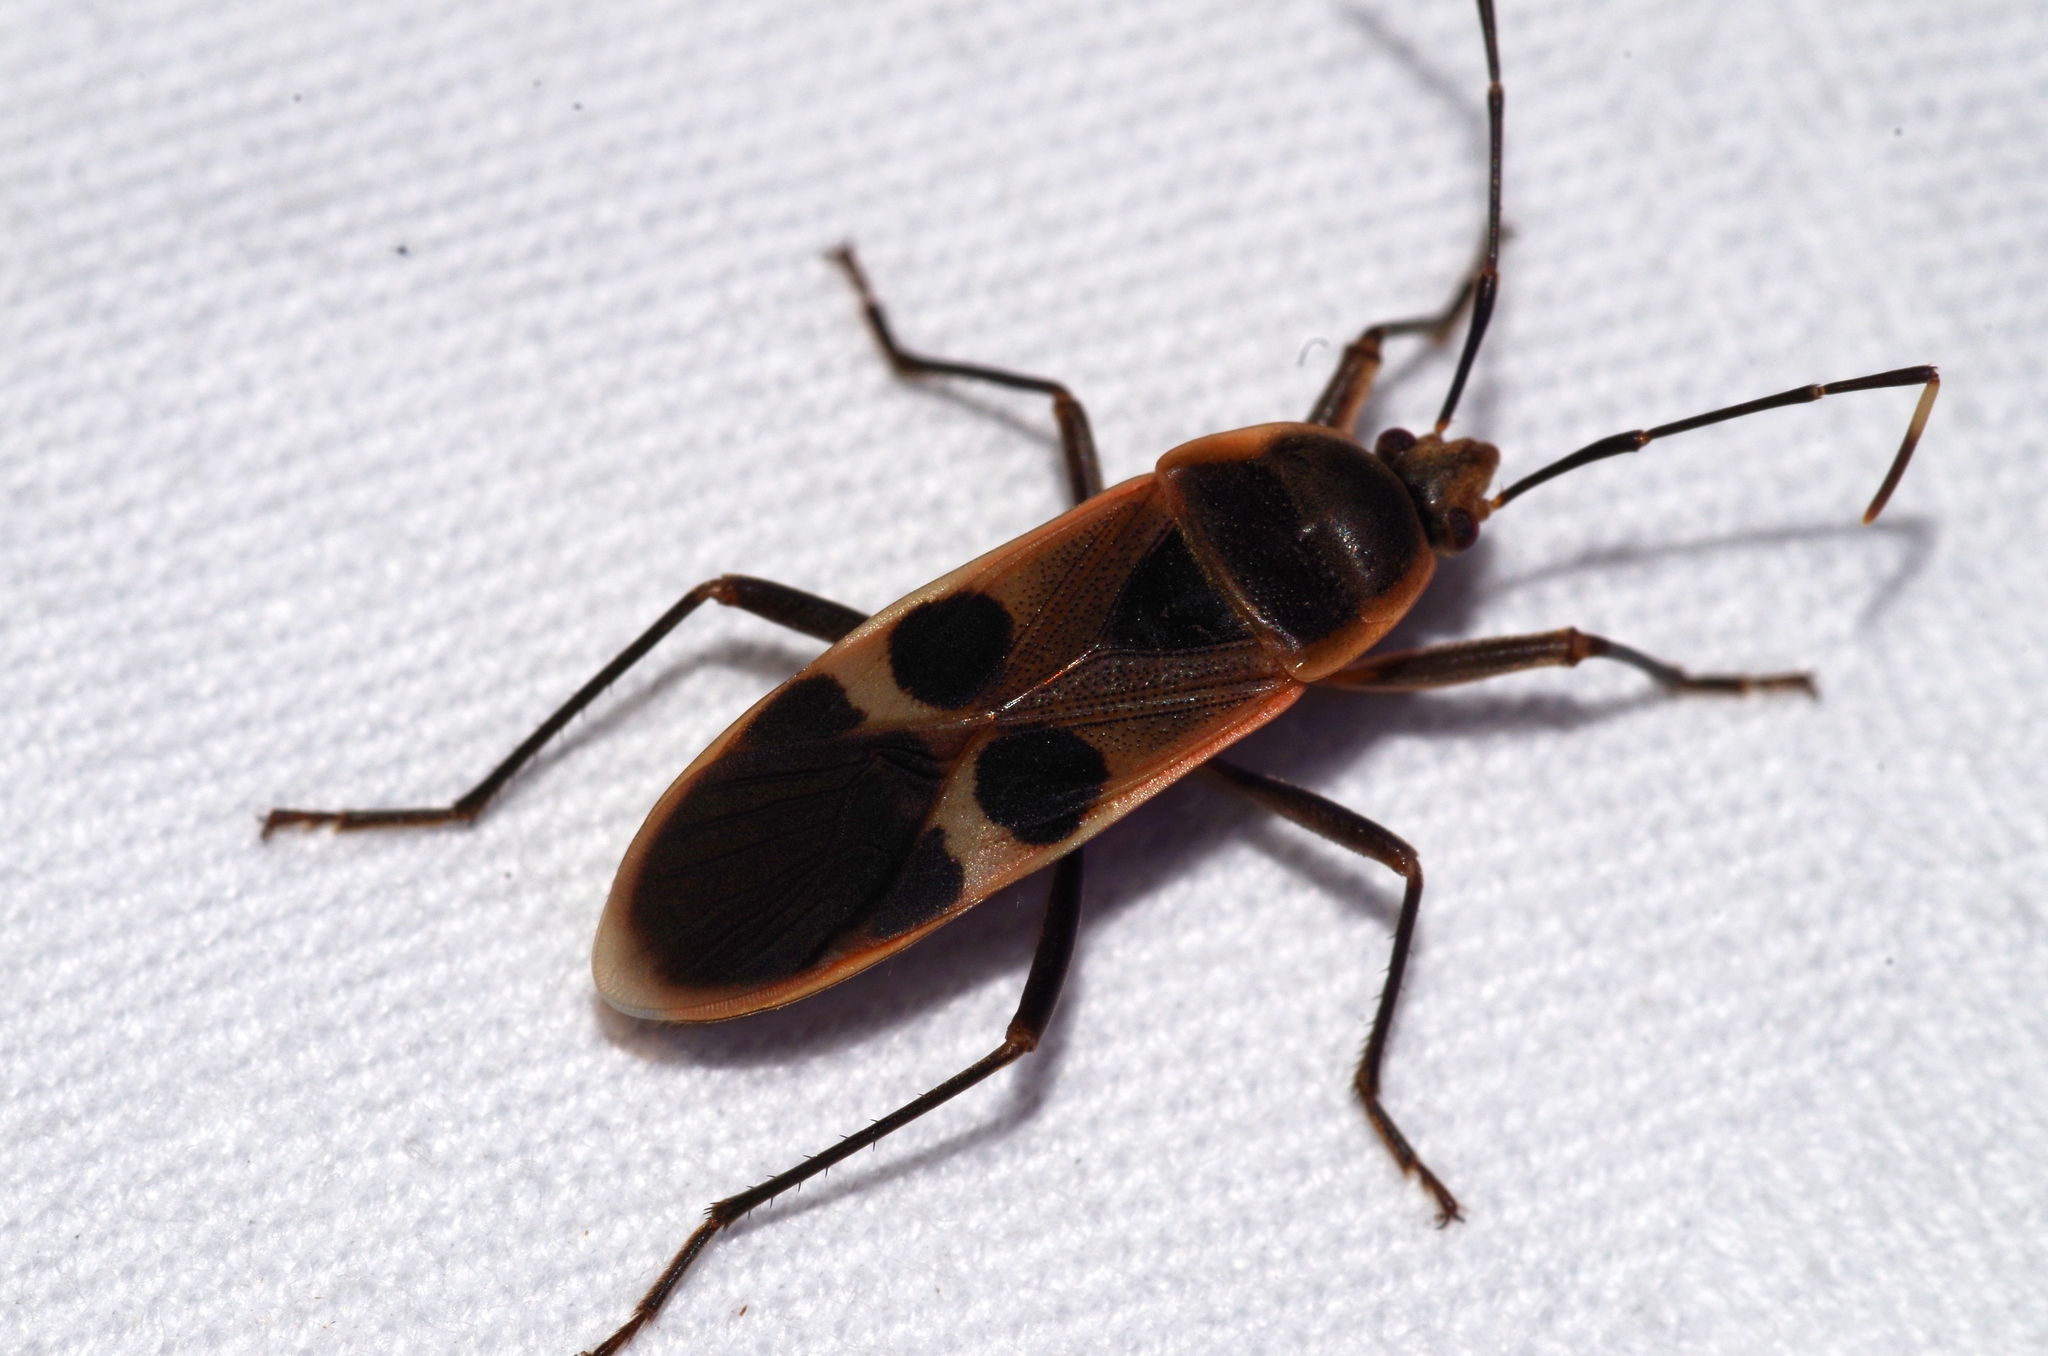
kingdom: Animalia
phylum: Arthropoda
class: Insecta
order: Hemiptera
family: Largidae
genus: Physopelta
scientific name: Physopelta gutta
